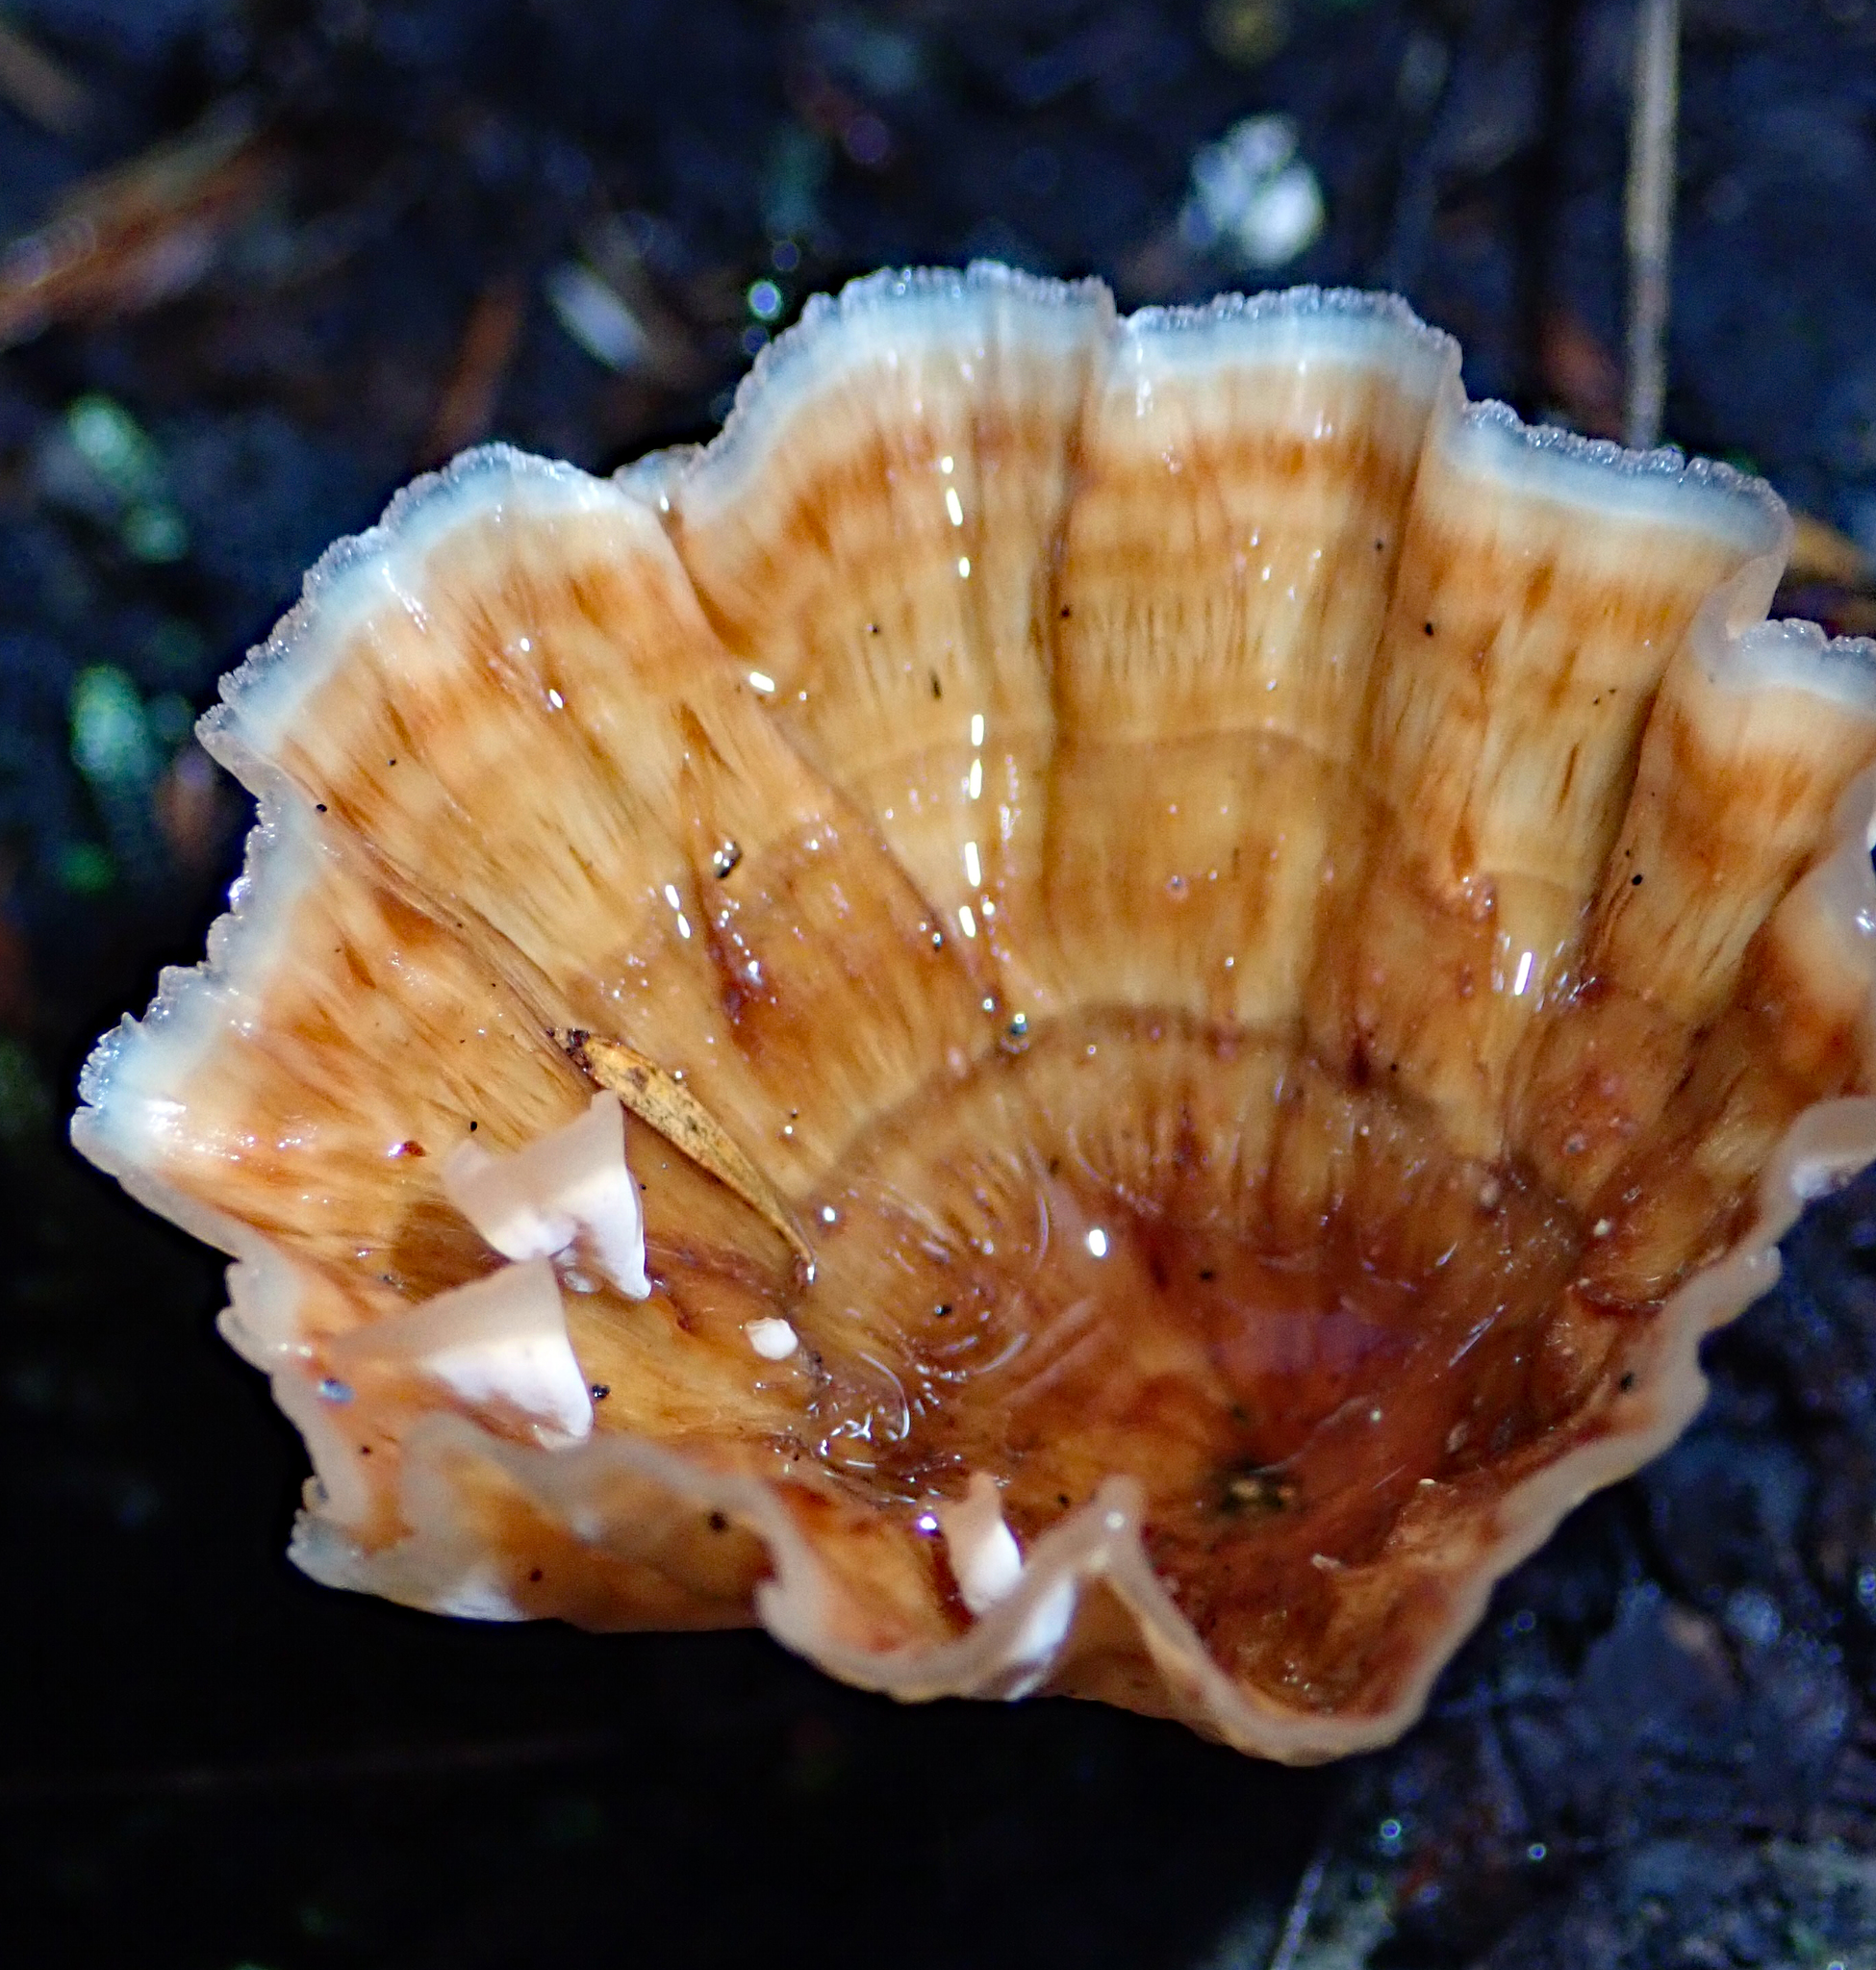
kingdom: Fungi
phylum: Basidiomycota
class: Agaricomycetes
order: Polyporales
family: Podoscyphaceae
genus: Podoscypha
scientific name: Podoscypha petalodes
